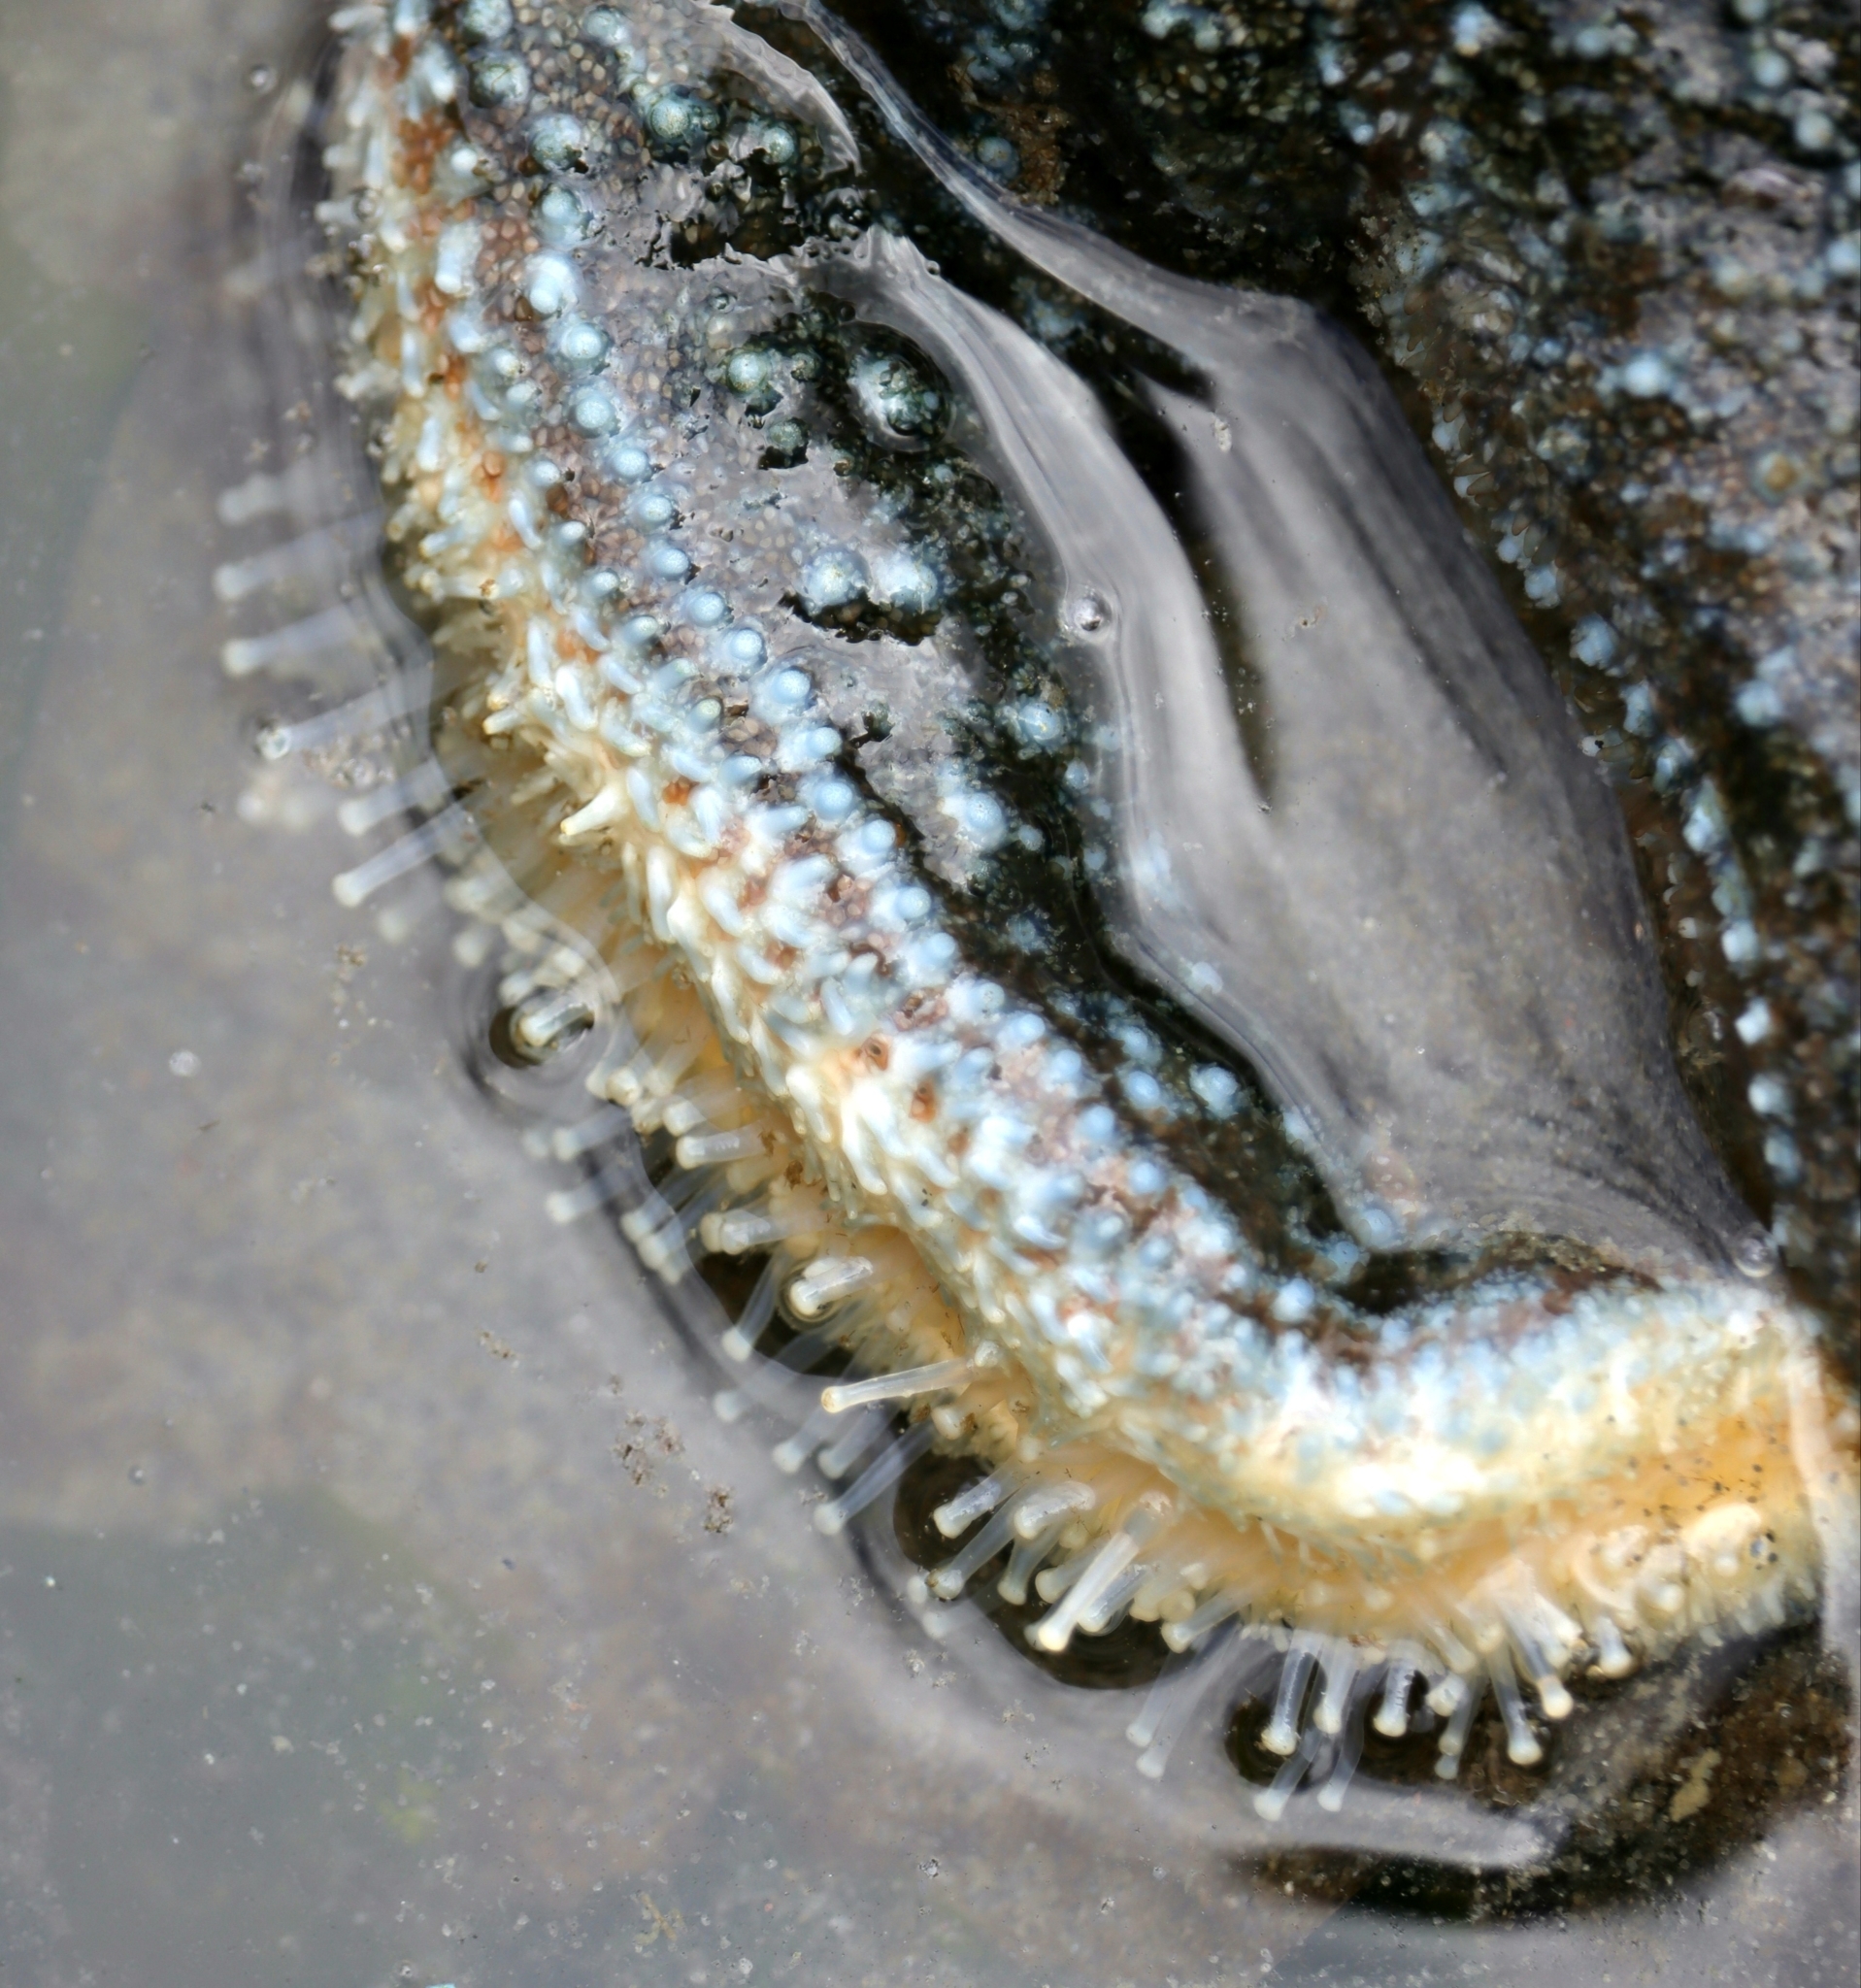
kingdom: Animalia
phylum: Echinodermata
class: Asteroidea
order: Forcipulatida
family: Asteriidae
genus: Evasterias
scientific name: Evasterias troschelii
